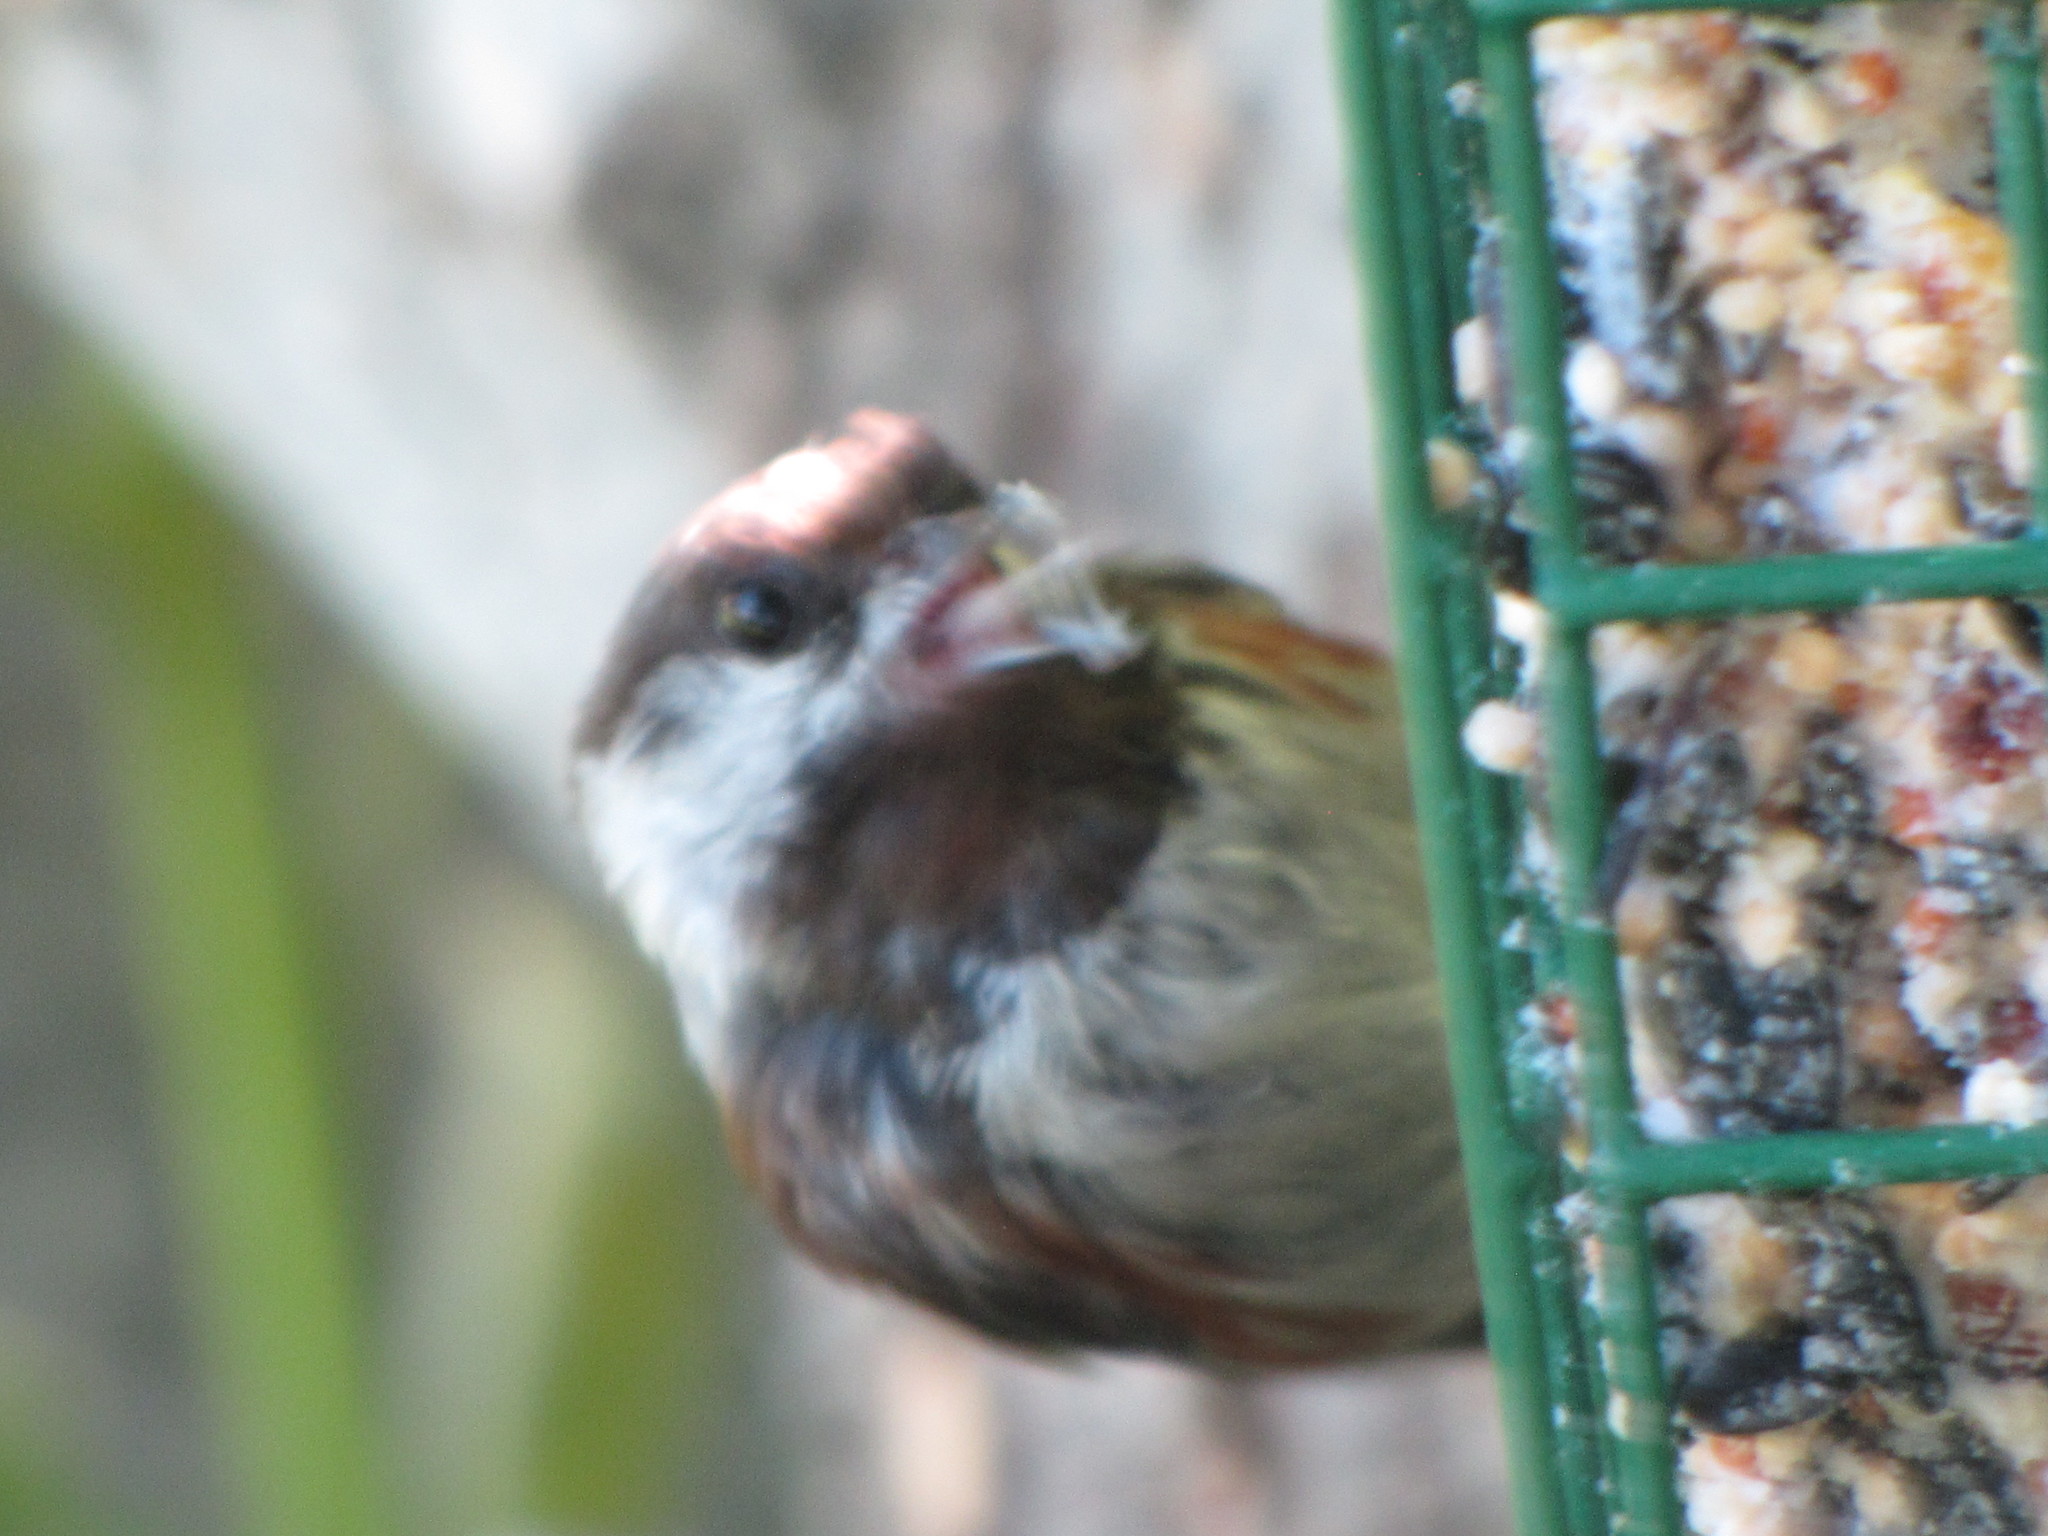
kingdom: Animalia
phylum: Chordata
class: Aves
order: Passeriformes
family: Paridae
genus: Poecile
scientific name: Poecile rufescens
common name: Chestnut-backed chickadee
